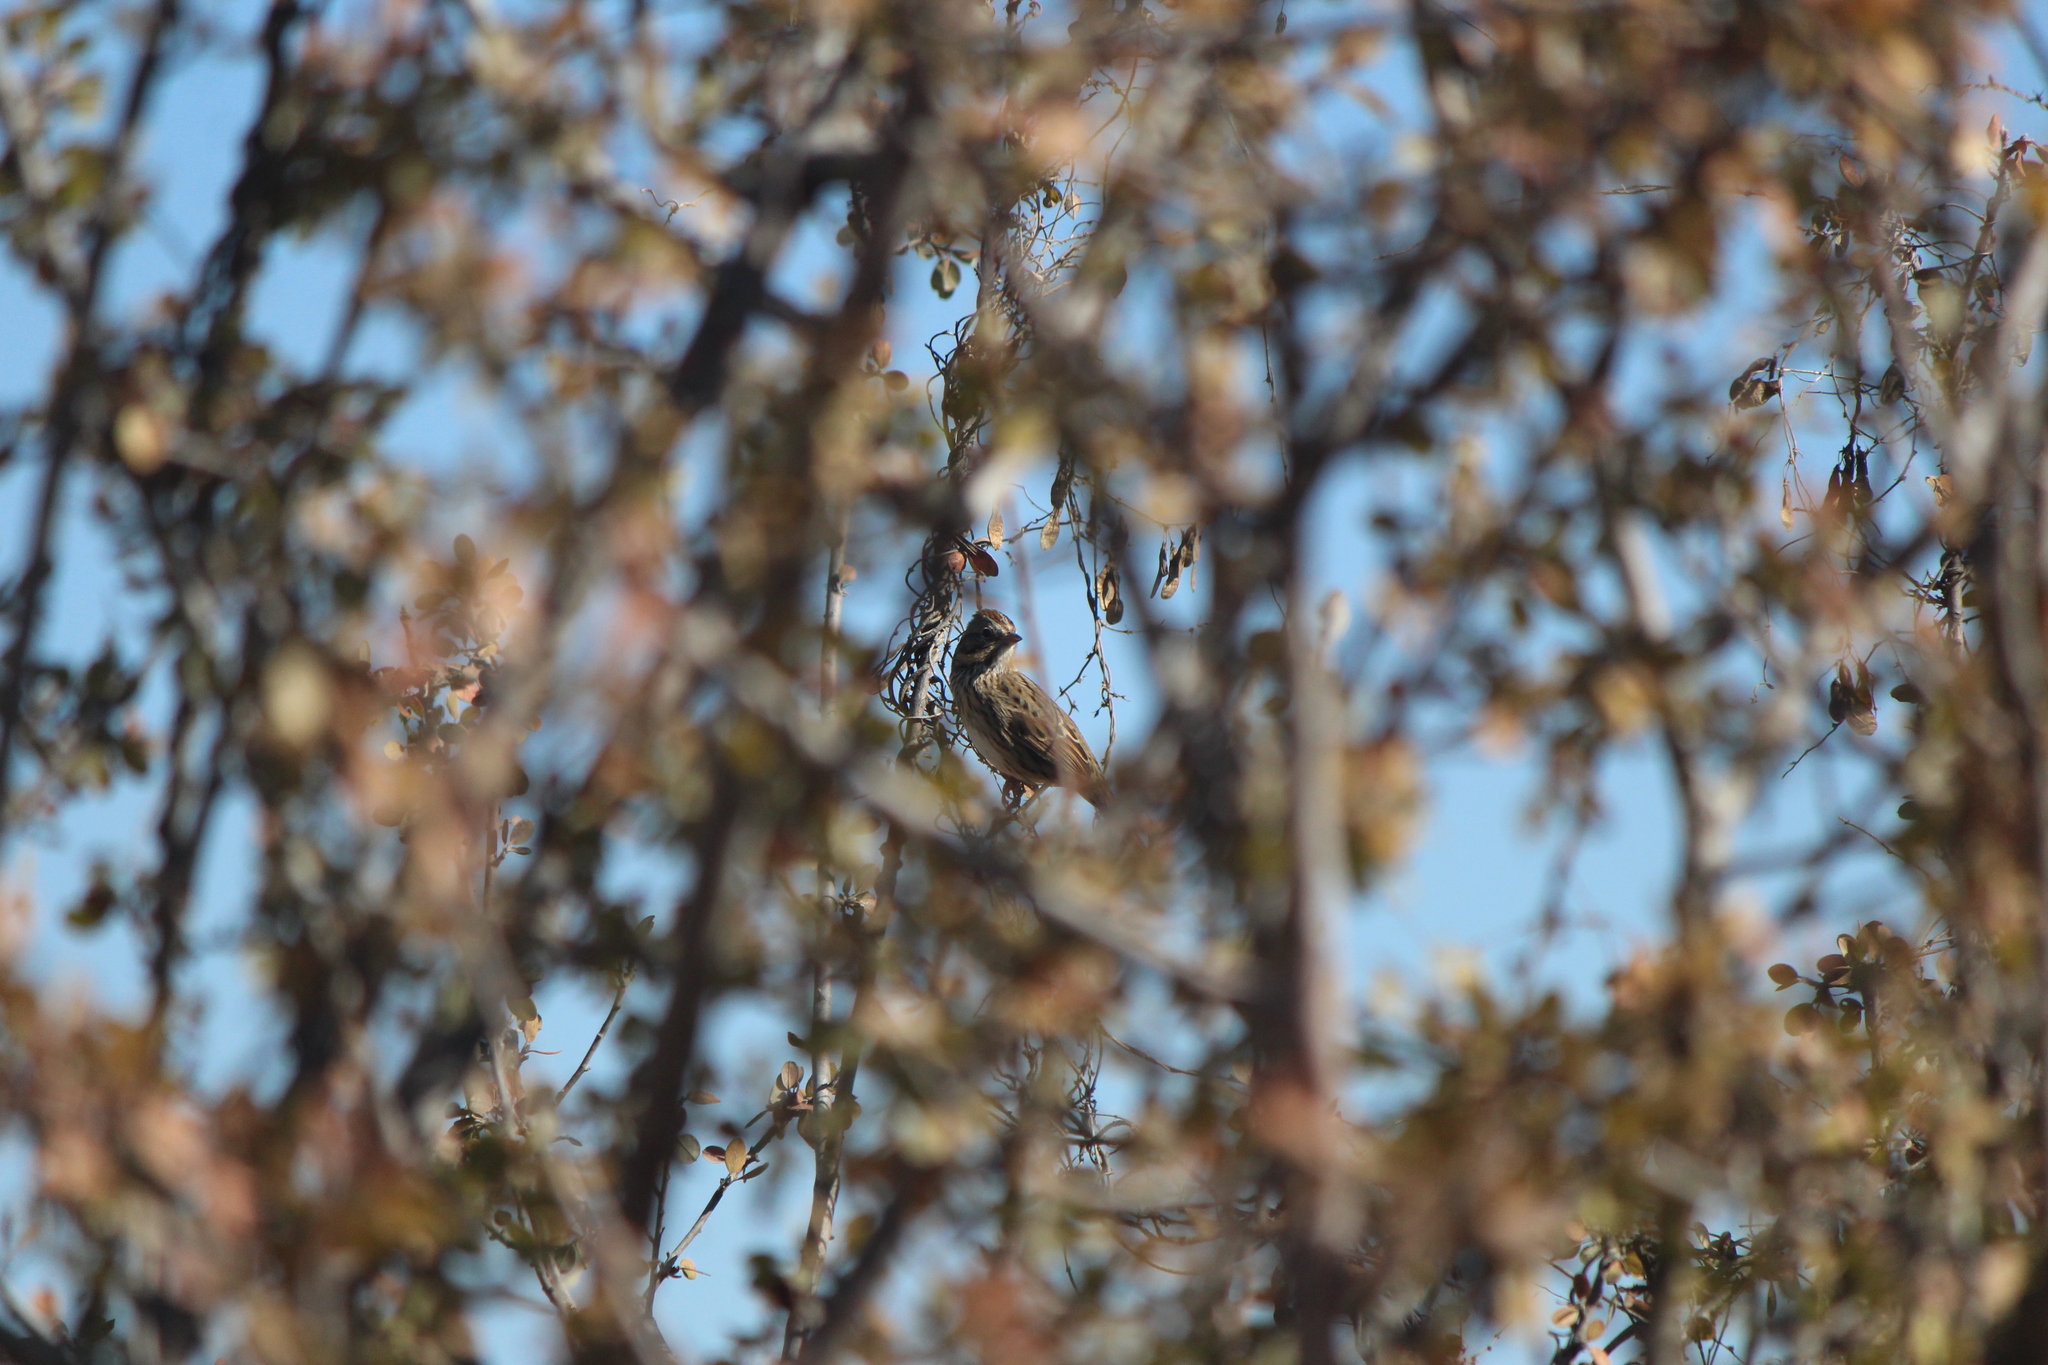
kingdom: Animalia
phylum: Chordata
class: Aves
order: Passeriformes
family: Passerellidae
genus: Melospiza
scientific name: Melospiza lincolnii
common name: Lincoln's sparrow
